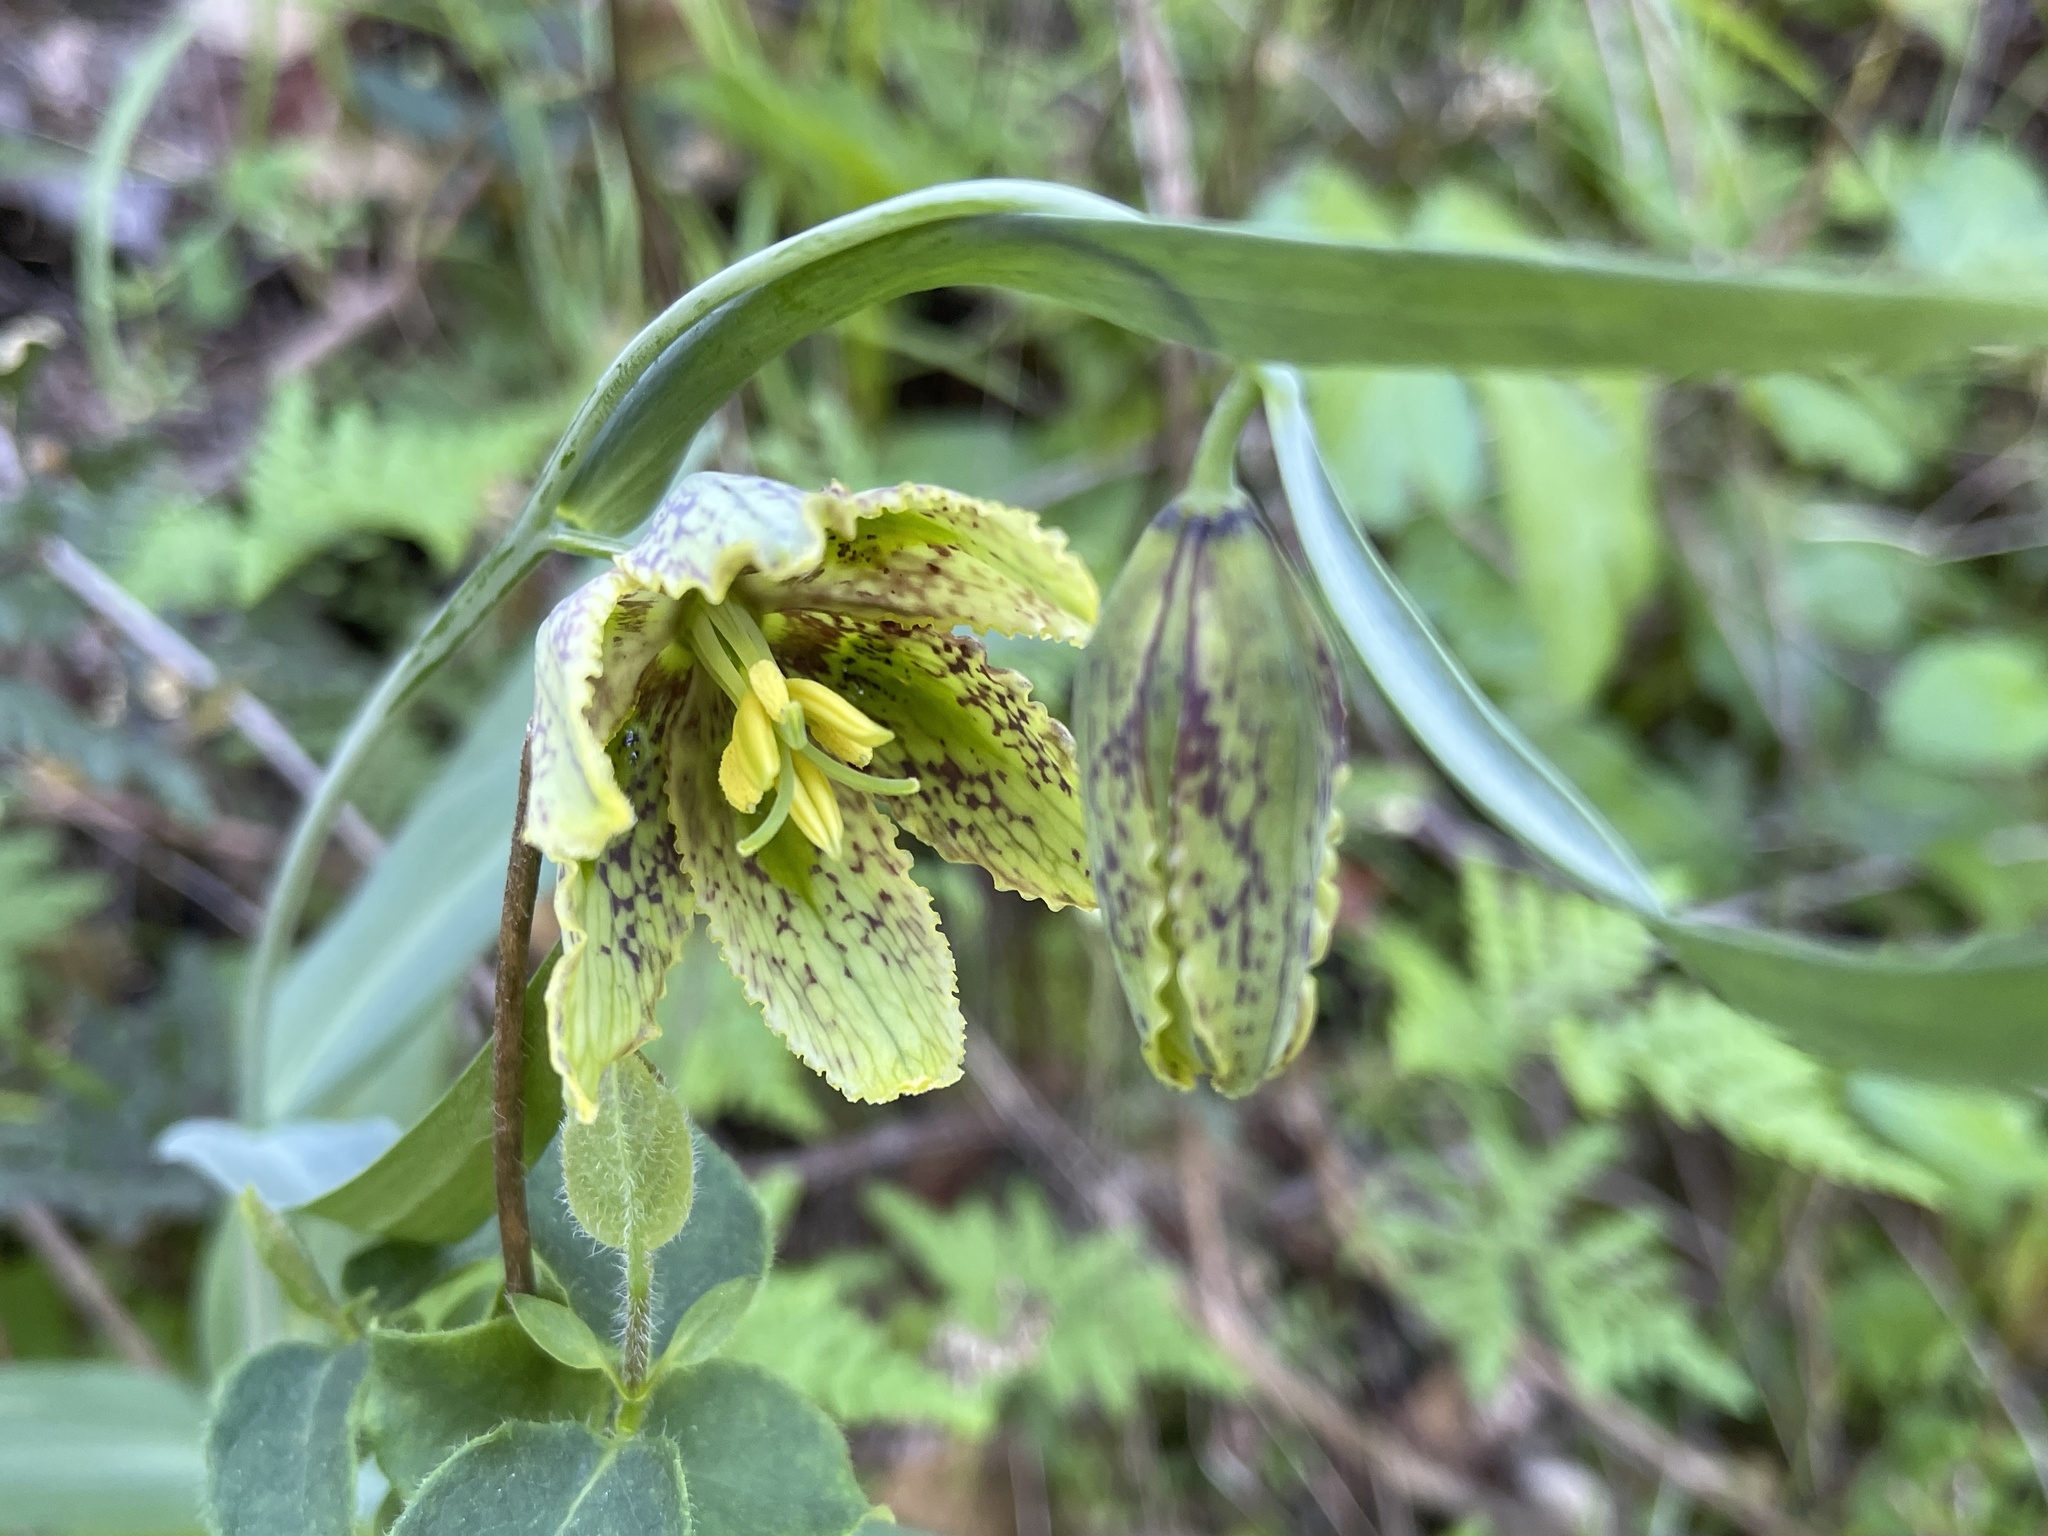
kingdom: Plantae
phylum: Tracheophyta
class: Liliopsida
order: Liliales
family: Liliaceae
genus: Fritillaria
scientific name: Fritillaria affinis
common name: Ojai fritillary
